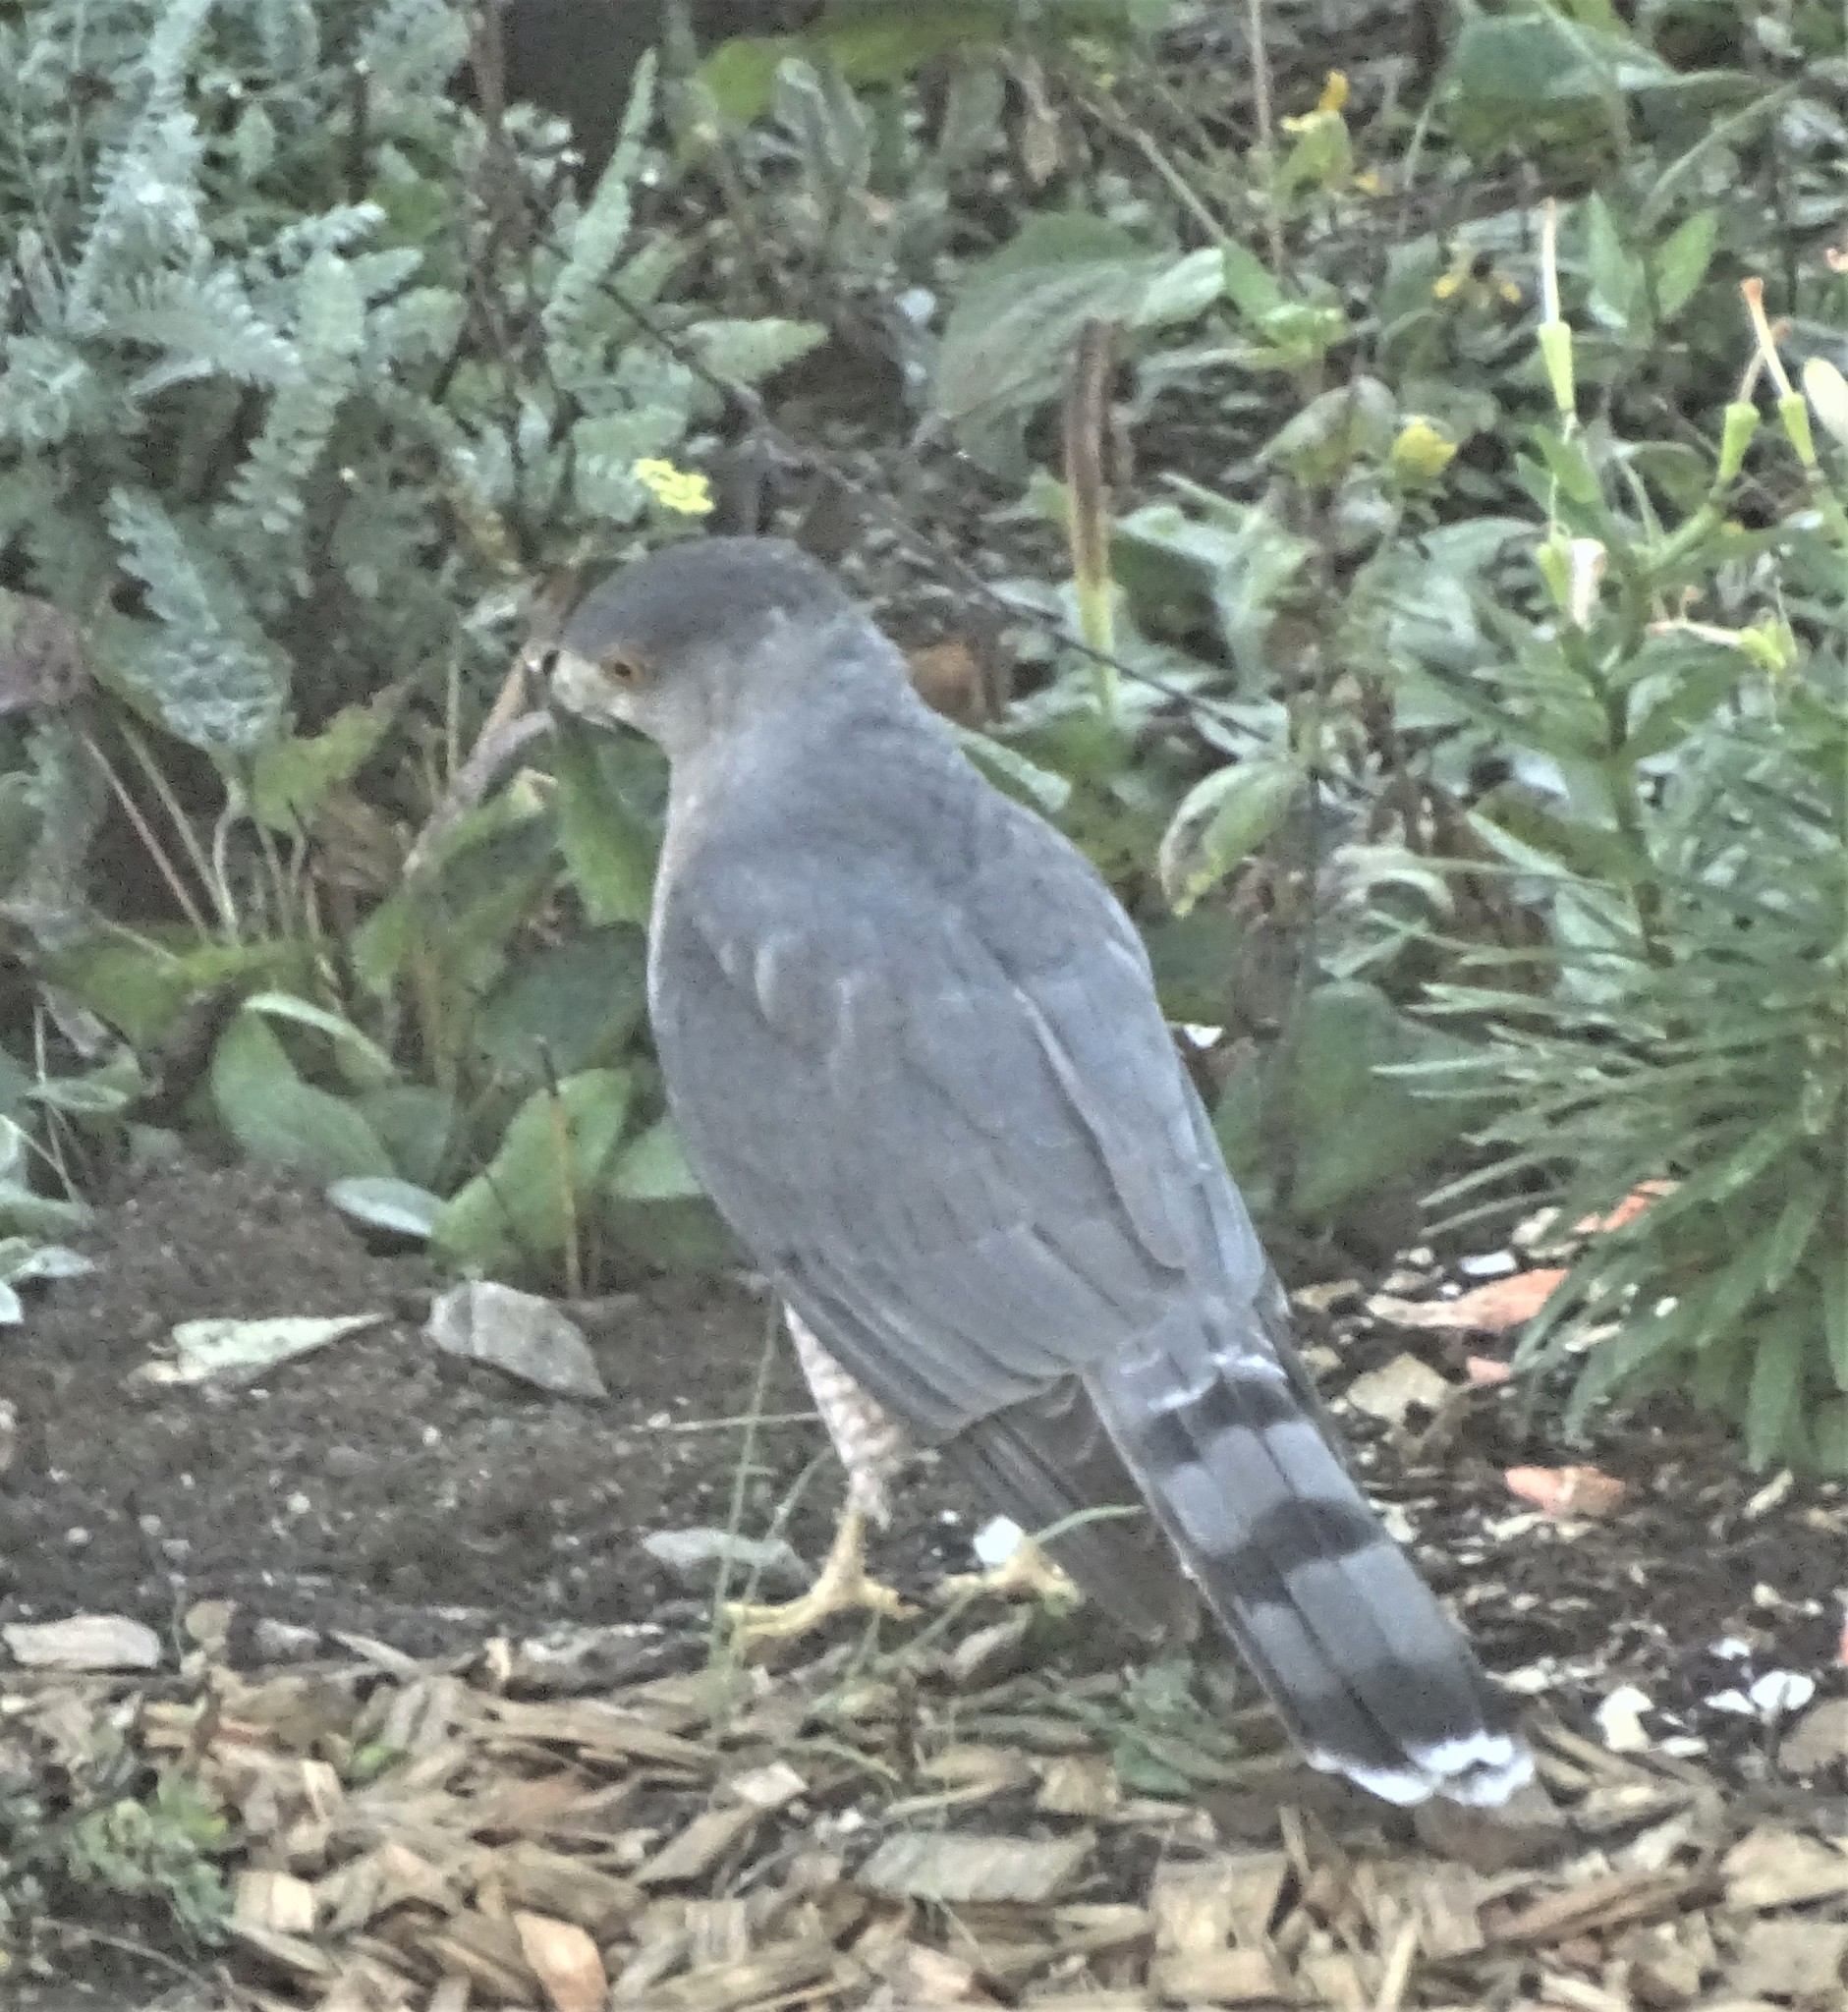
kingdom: Animalia
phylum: Chordata
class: Aves
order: Accipitriformes
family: Accipitridae
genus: Accipiter
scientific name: Accipiter cooperii
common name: Cooper's hawk
